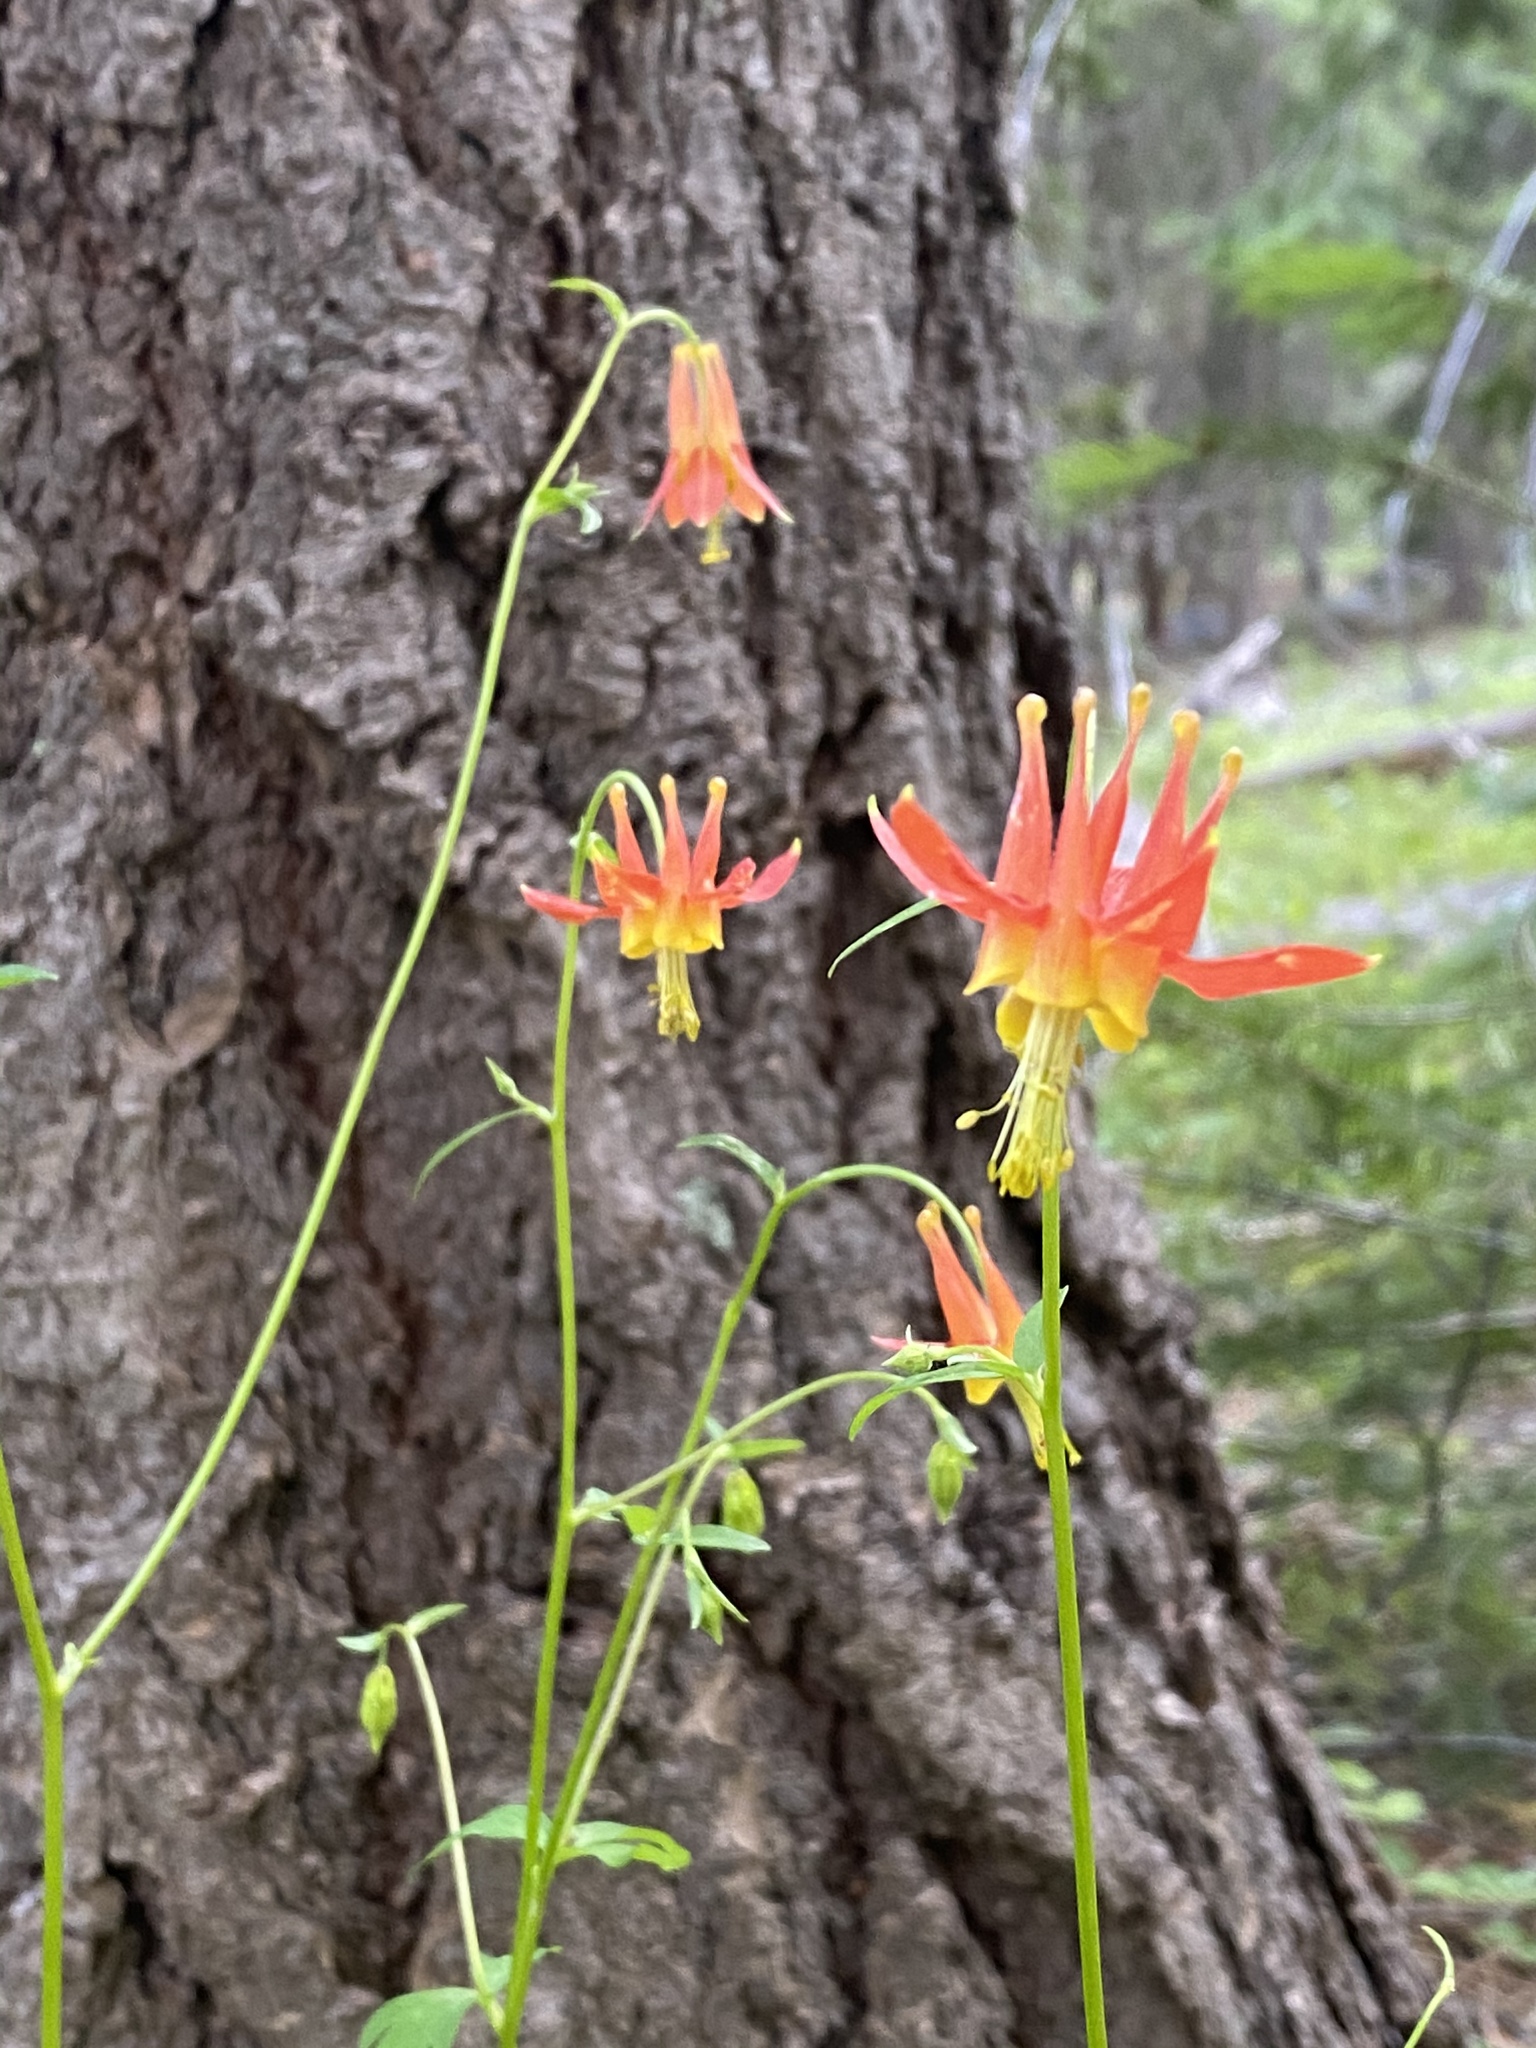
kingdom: Plantae
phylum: Tracheophyta
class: Magnoliopsida
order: Ranunculales
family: Ranunculaceae
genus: Aquilegia
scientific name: Aquilegia formosa
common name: Sitka columbine
